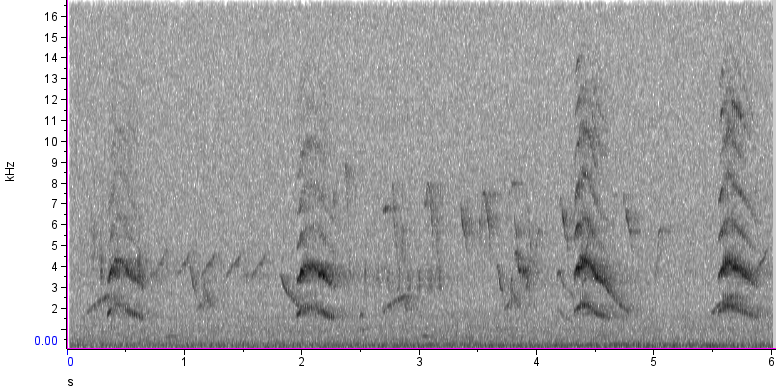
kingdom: Animalia
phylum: Chordata
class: Aves
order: Piciformes
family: Picidae
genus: Melanerpes
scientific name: Melanerpes candidus
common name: White woodpecker
